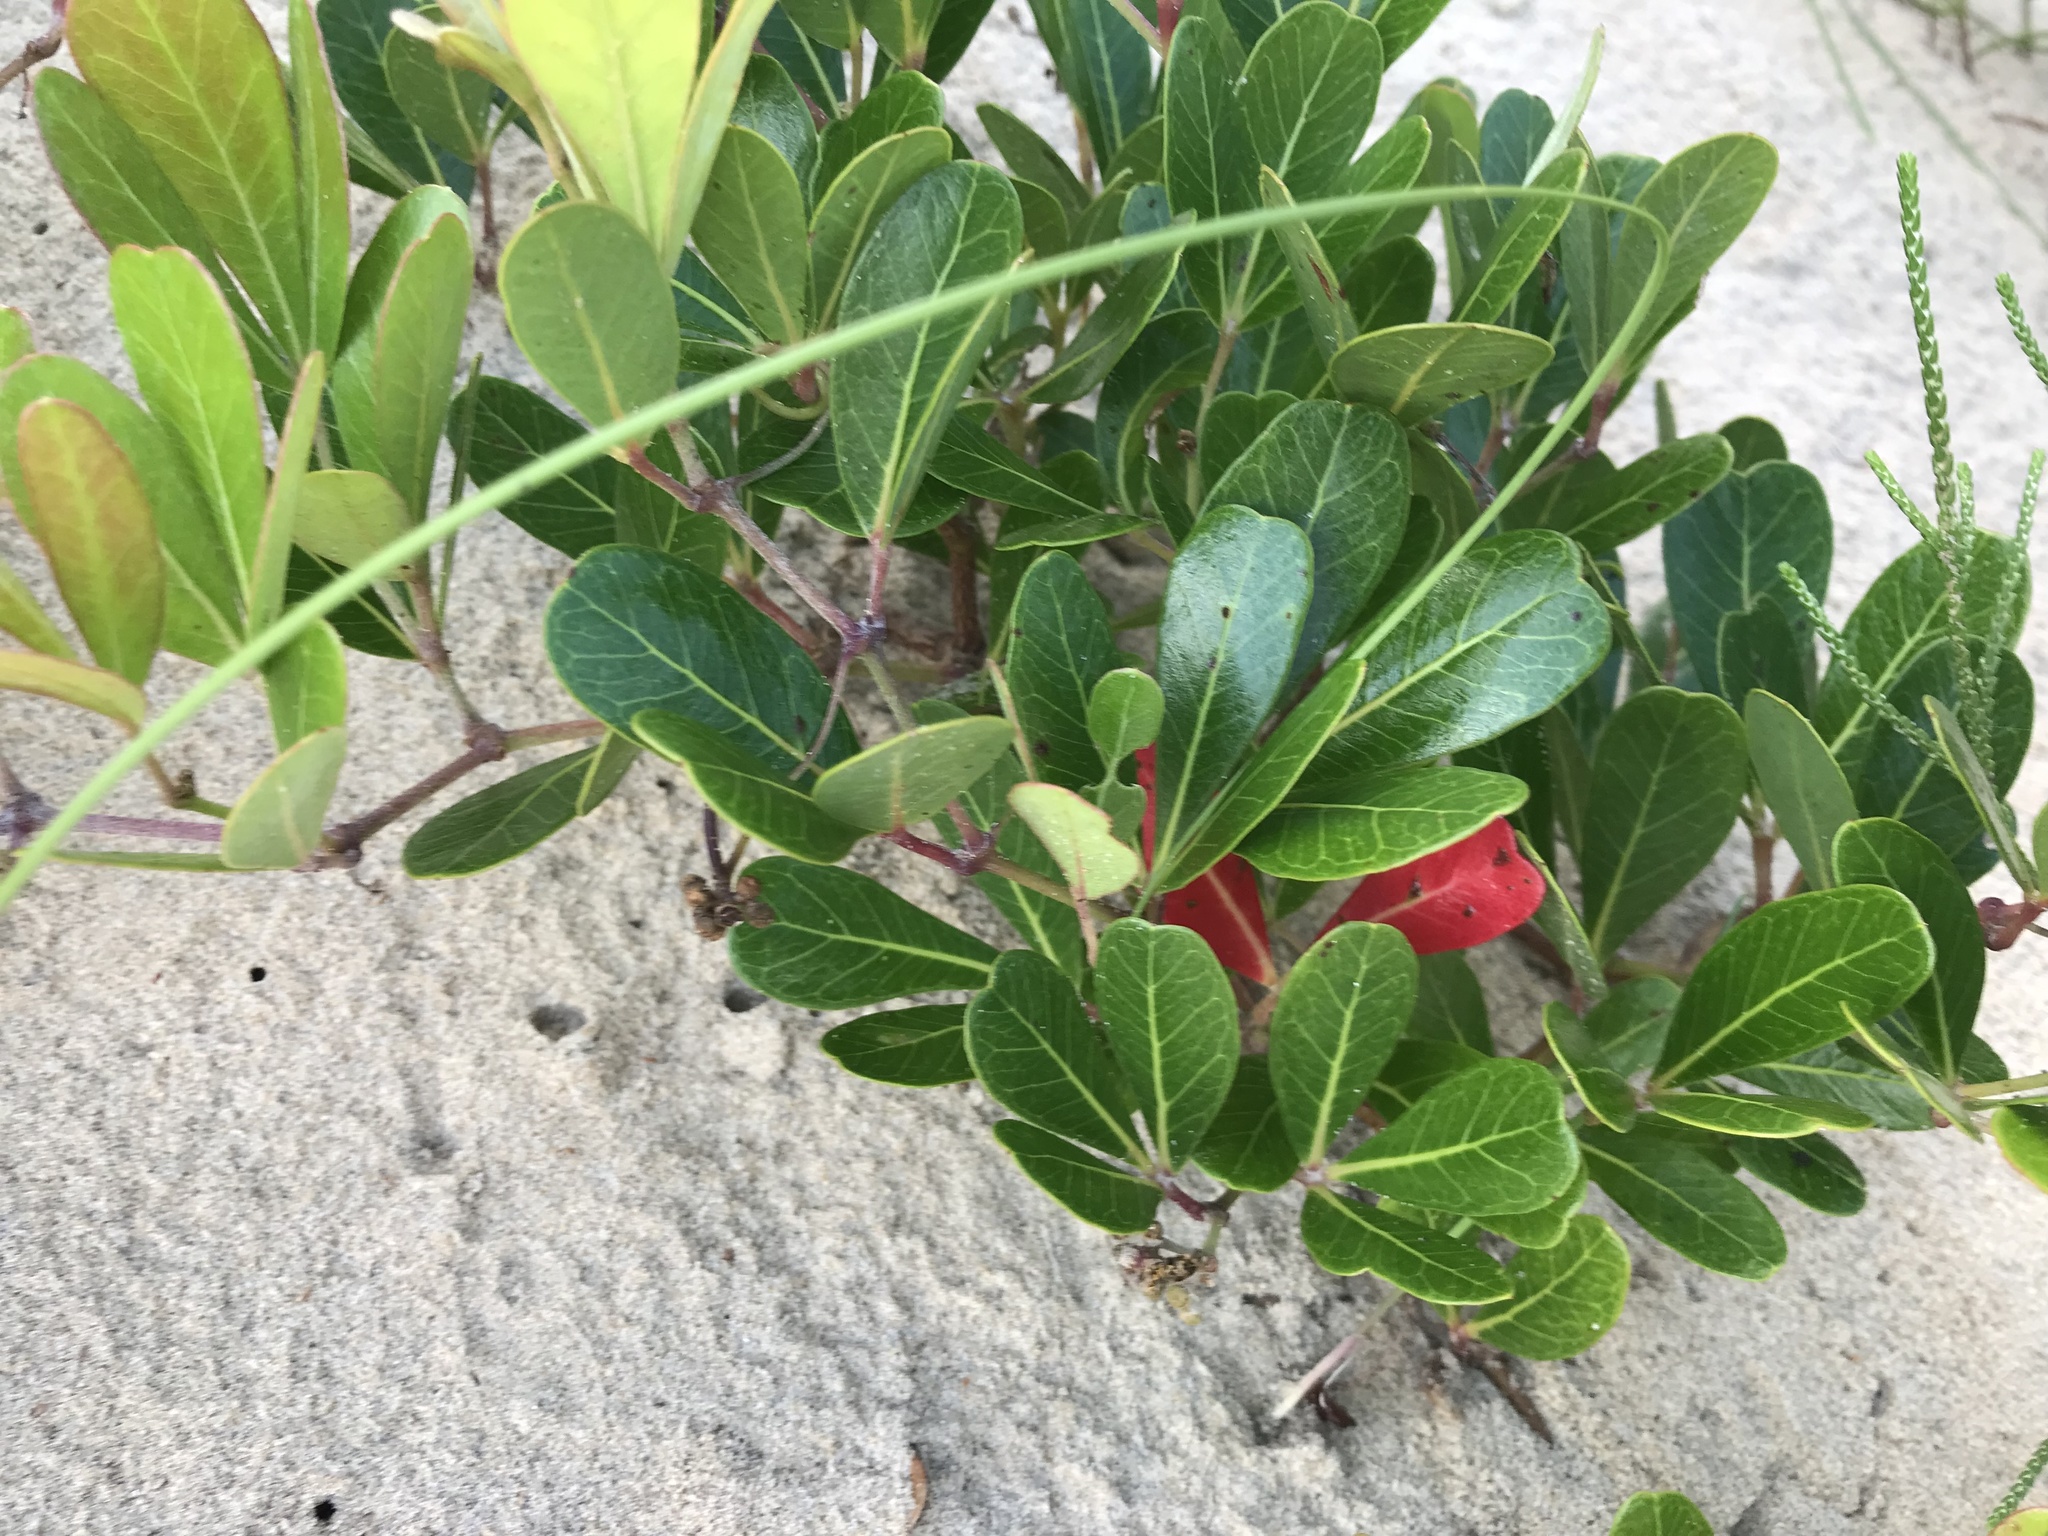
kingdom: Plantae
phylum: Tracheophyta
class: Magnoliopsida
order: Vitales
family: Vitaceae
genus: Rhoicissus
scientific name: Rhoicissus digitata
